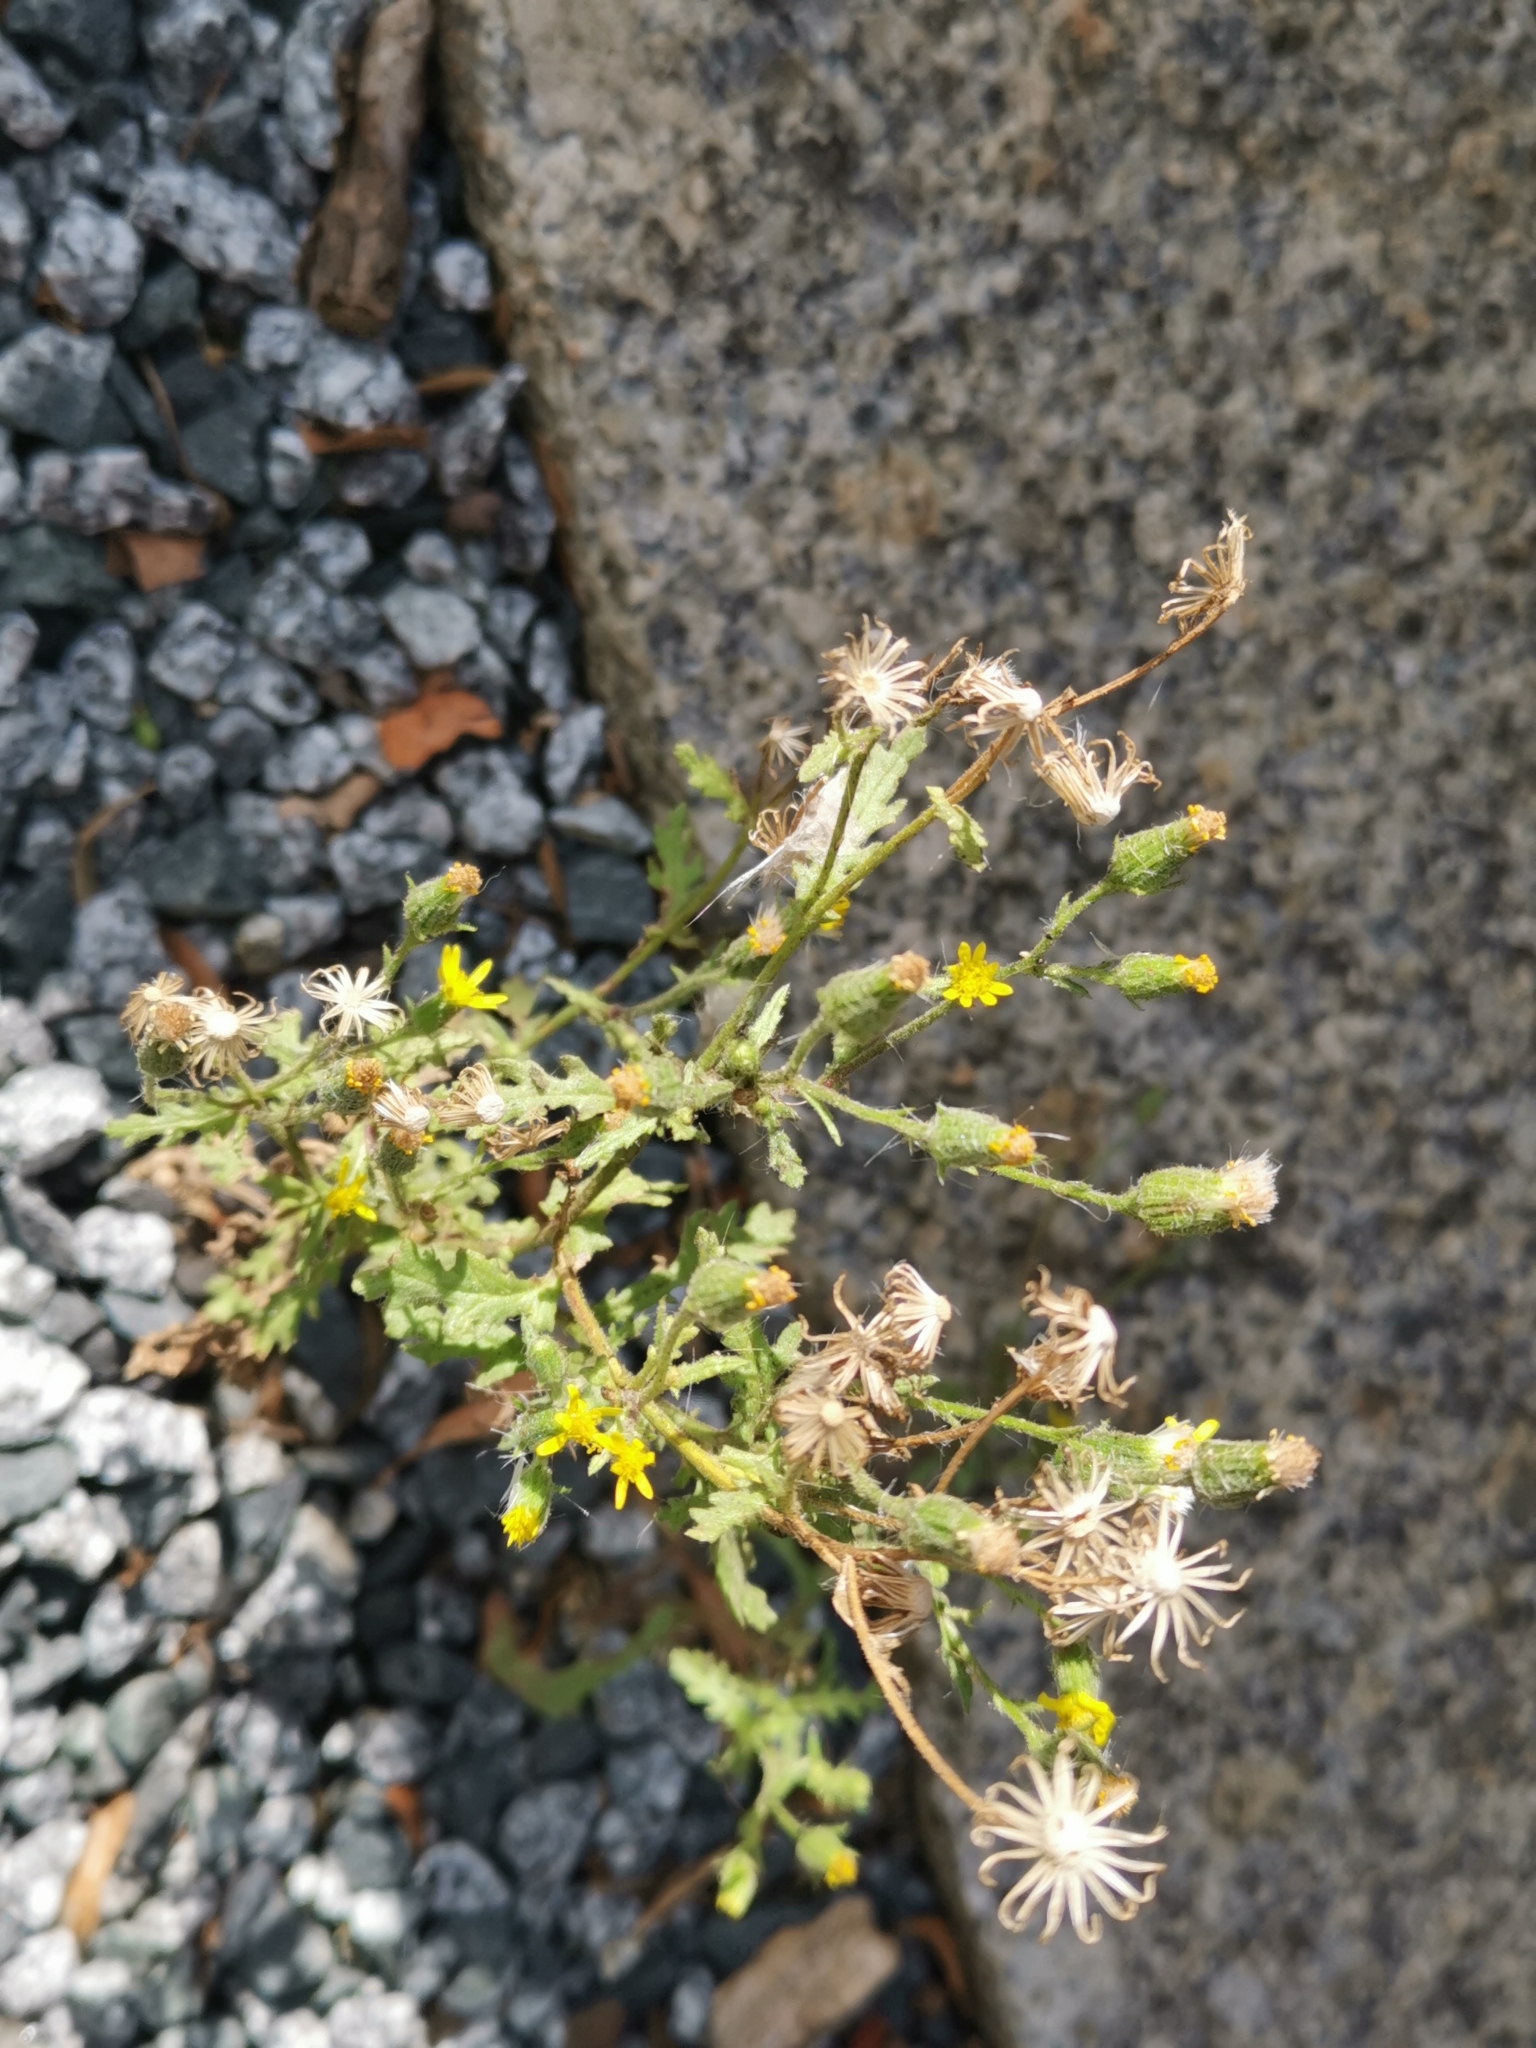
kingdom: Plantae
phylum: Tracheophyta
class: Magnoliopsida
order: Asterales
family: Asteraceae
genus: Senecio
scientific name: Senecio viscosus
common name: Sticky groundsel
